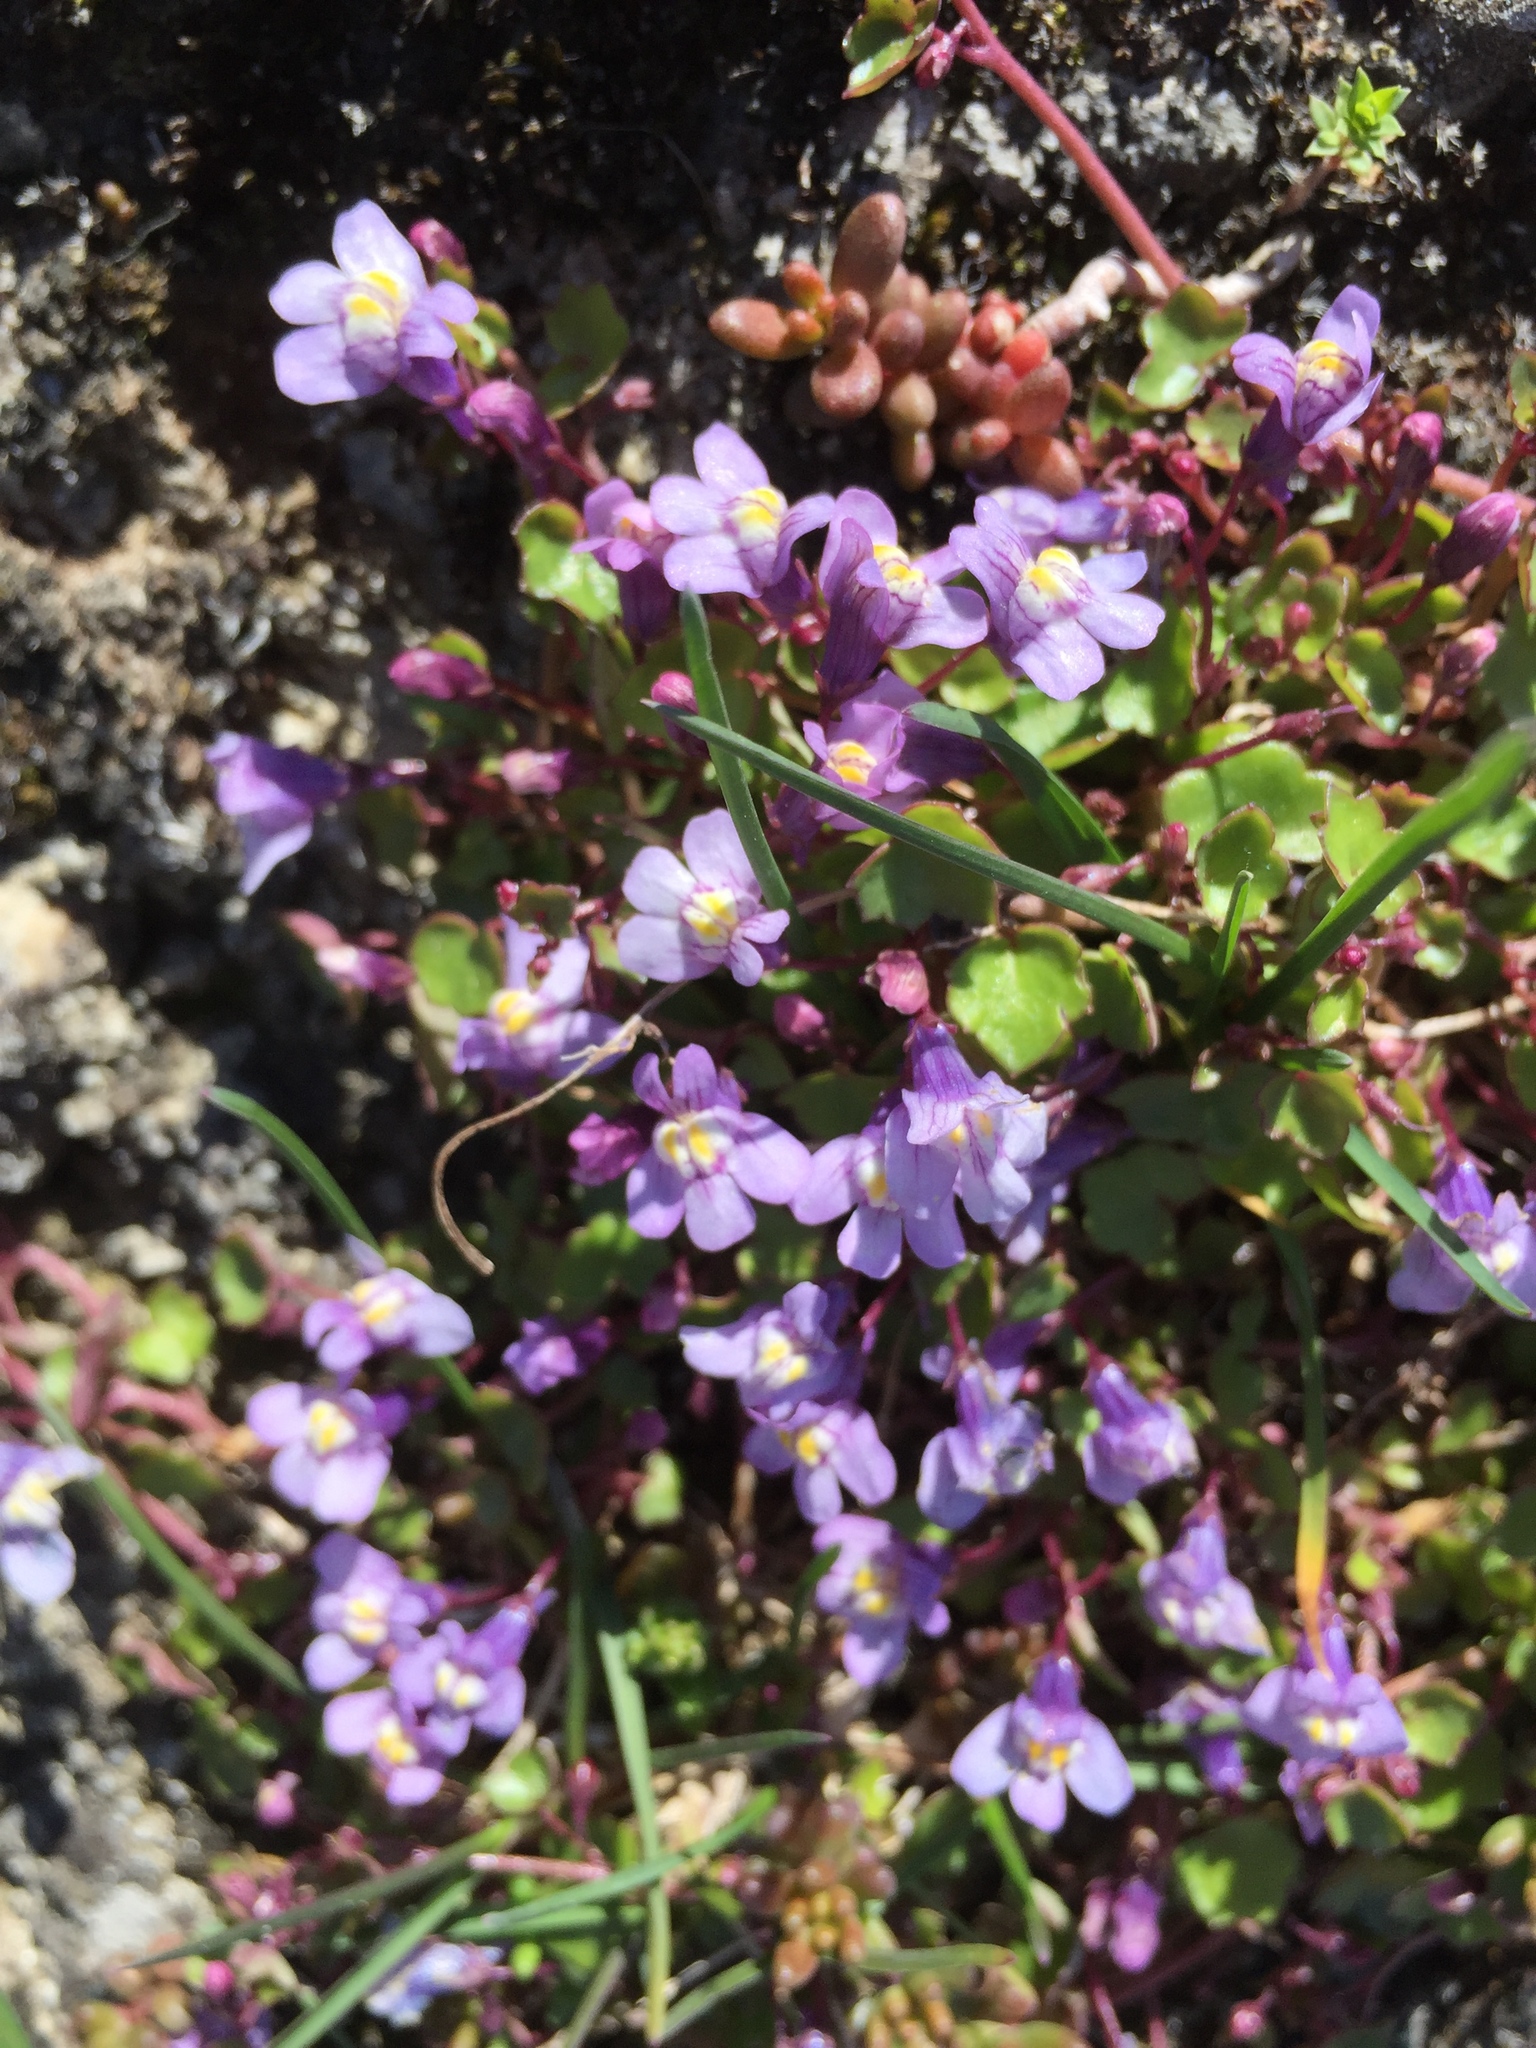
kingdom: Plantae
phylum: Tracheophyta
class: Magnoliopsida
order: Lamiales
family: Plantaginaceae
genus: Cymbalaria
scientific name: Cymbalaria muralis
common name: Ivy-leaved toadflax
